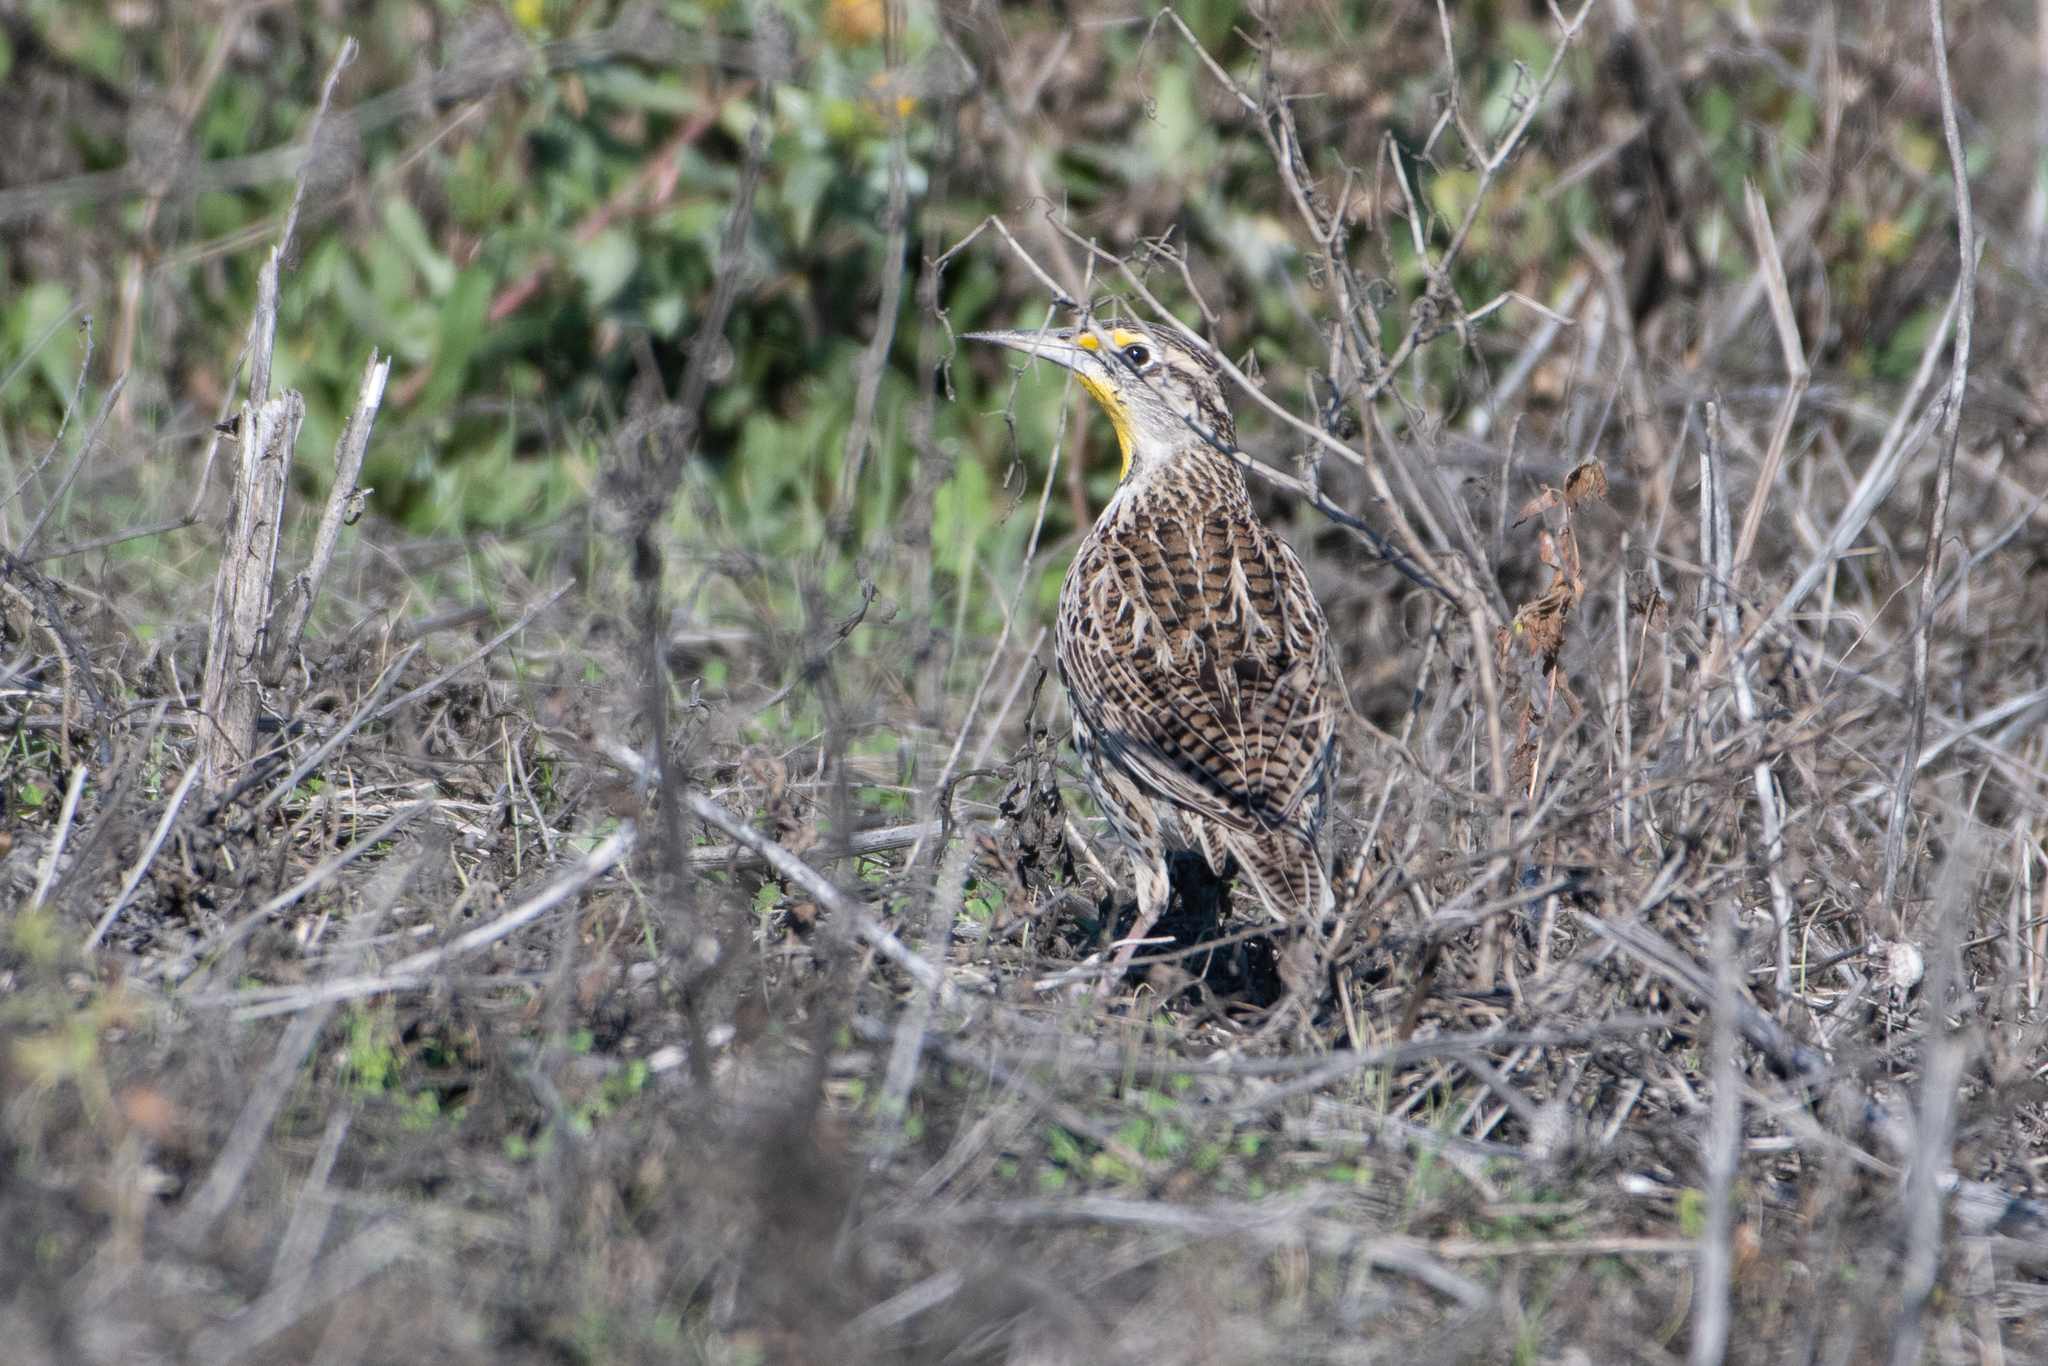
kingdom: Animalia
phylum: Chordata
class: Aves
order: Passeriformes
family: Icteridae
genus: Sturnella
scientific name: Sturnella neglecta
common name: Western meadowlark
